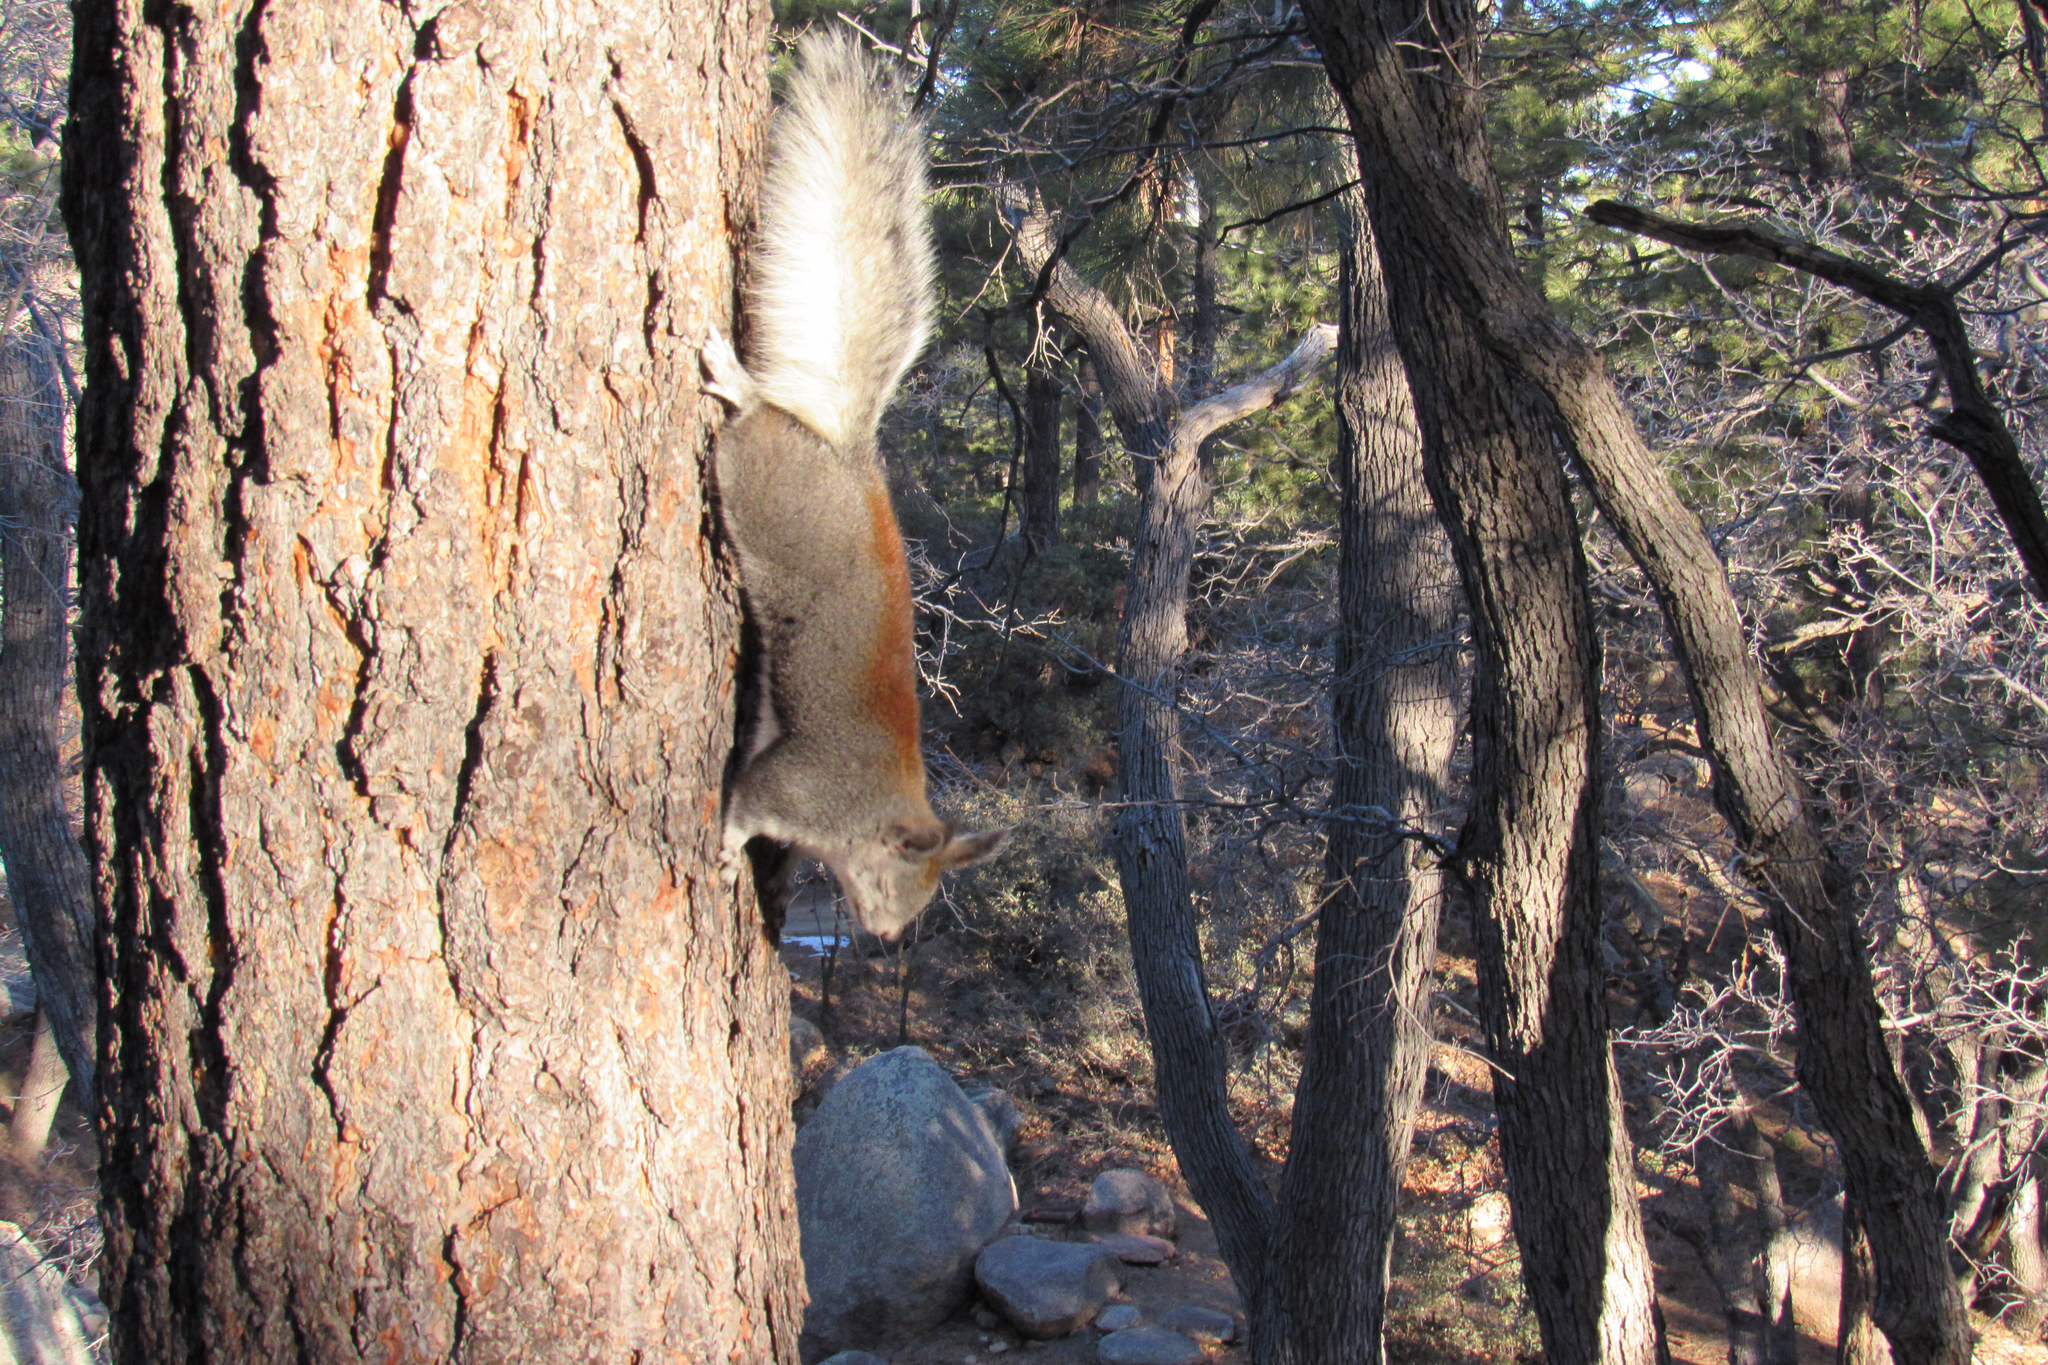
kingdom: Animalia
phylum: Chordata
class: Mammalia
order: Rodentia
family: Sciuridae
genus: Sciurus
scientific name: Sciurus aberti
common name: Abert's squirrel
